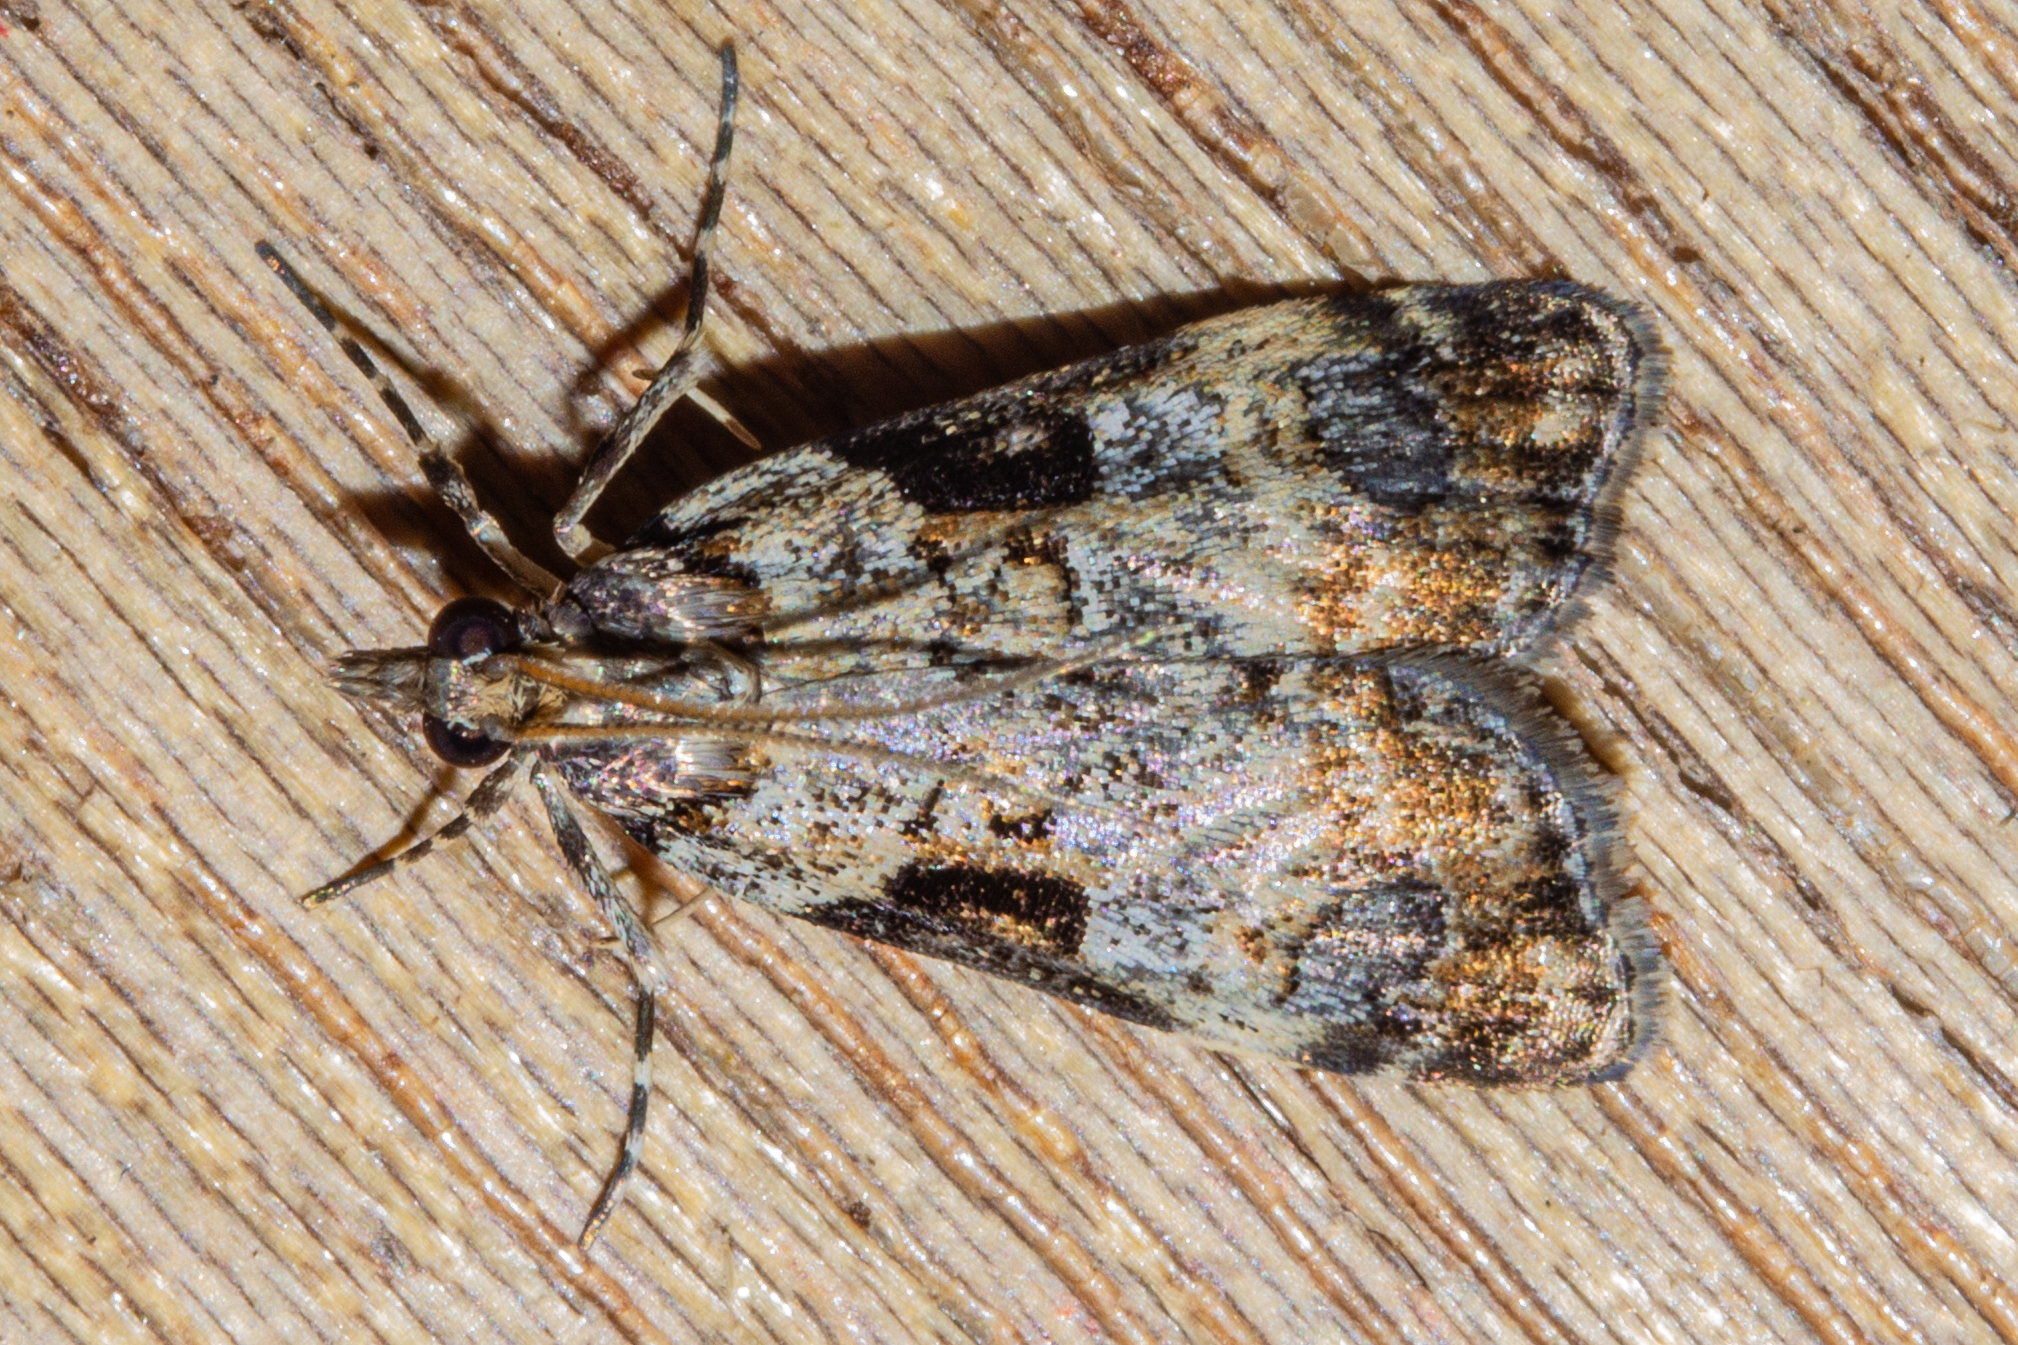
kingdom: Animalia
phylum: Arthropoda
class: Insecta
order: Lepidoptera
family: Crambidae
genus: Scoparia
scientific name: Scoparia acharis
